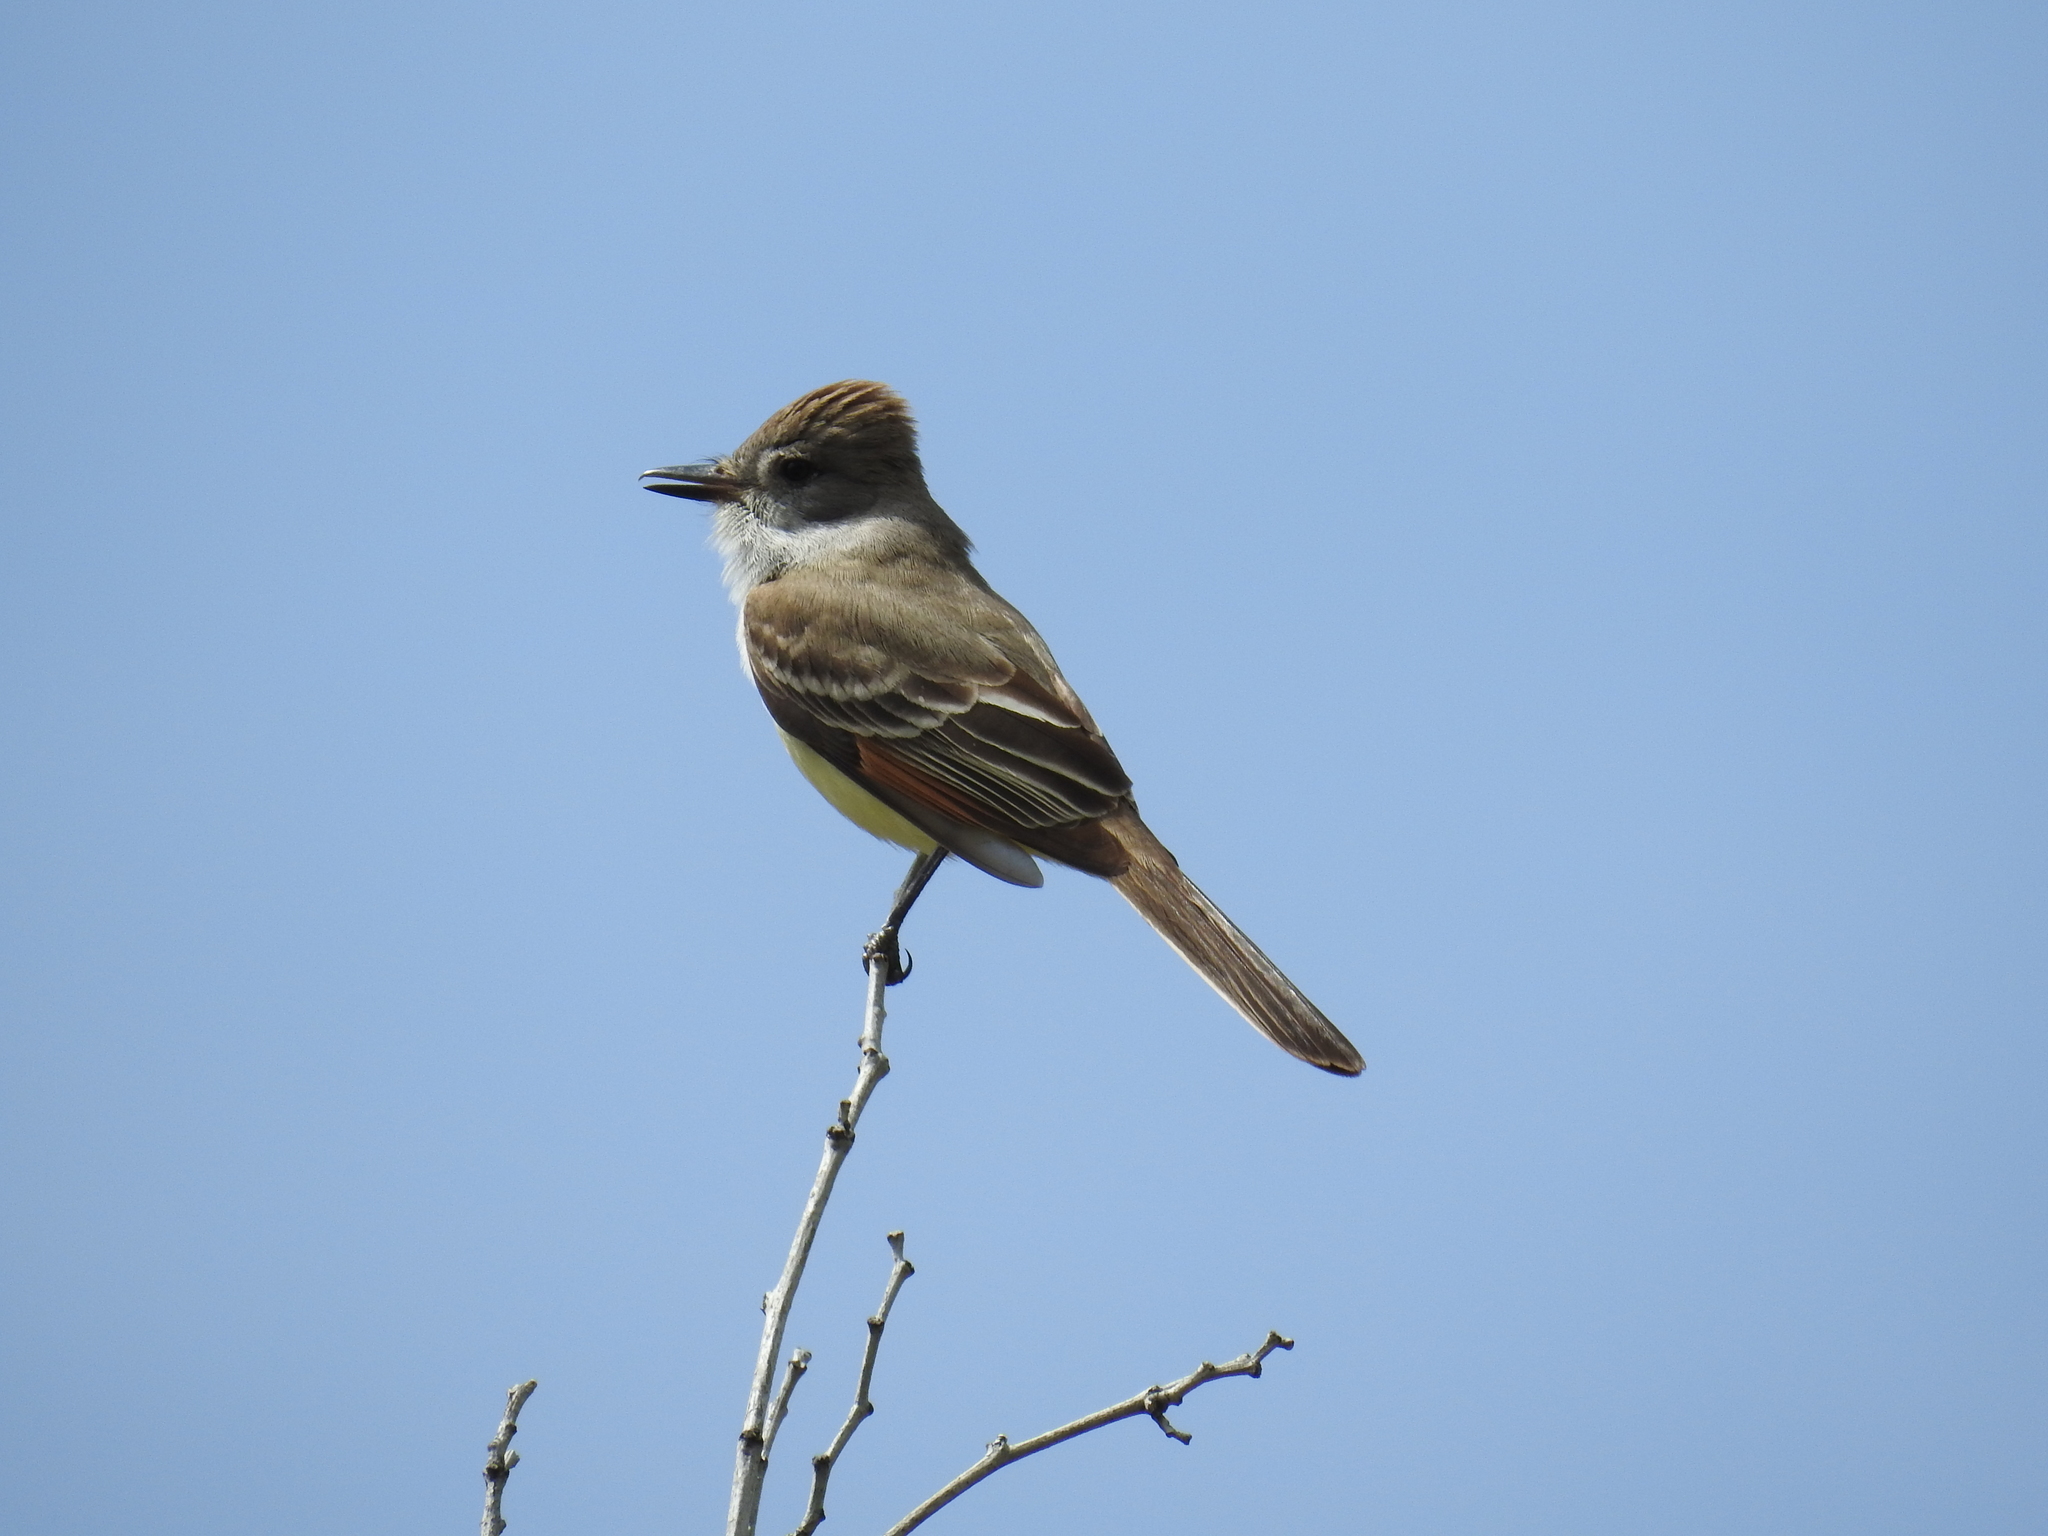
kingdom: Animalia
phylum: Chordata
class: Aves
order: Passeriformes
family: Tyrannidae
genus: Myiarchus
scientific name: Myiarchus cinerascens
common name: Ash-throated flycatcher
